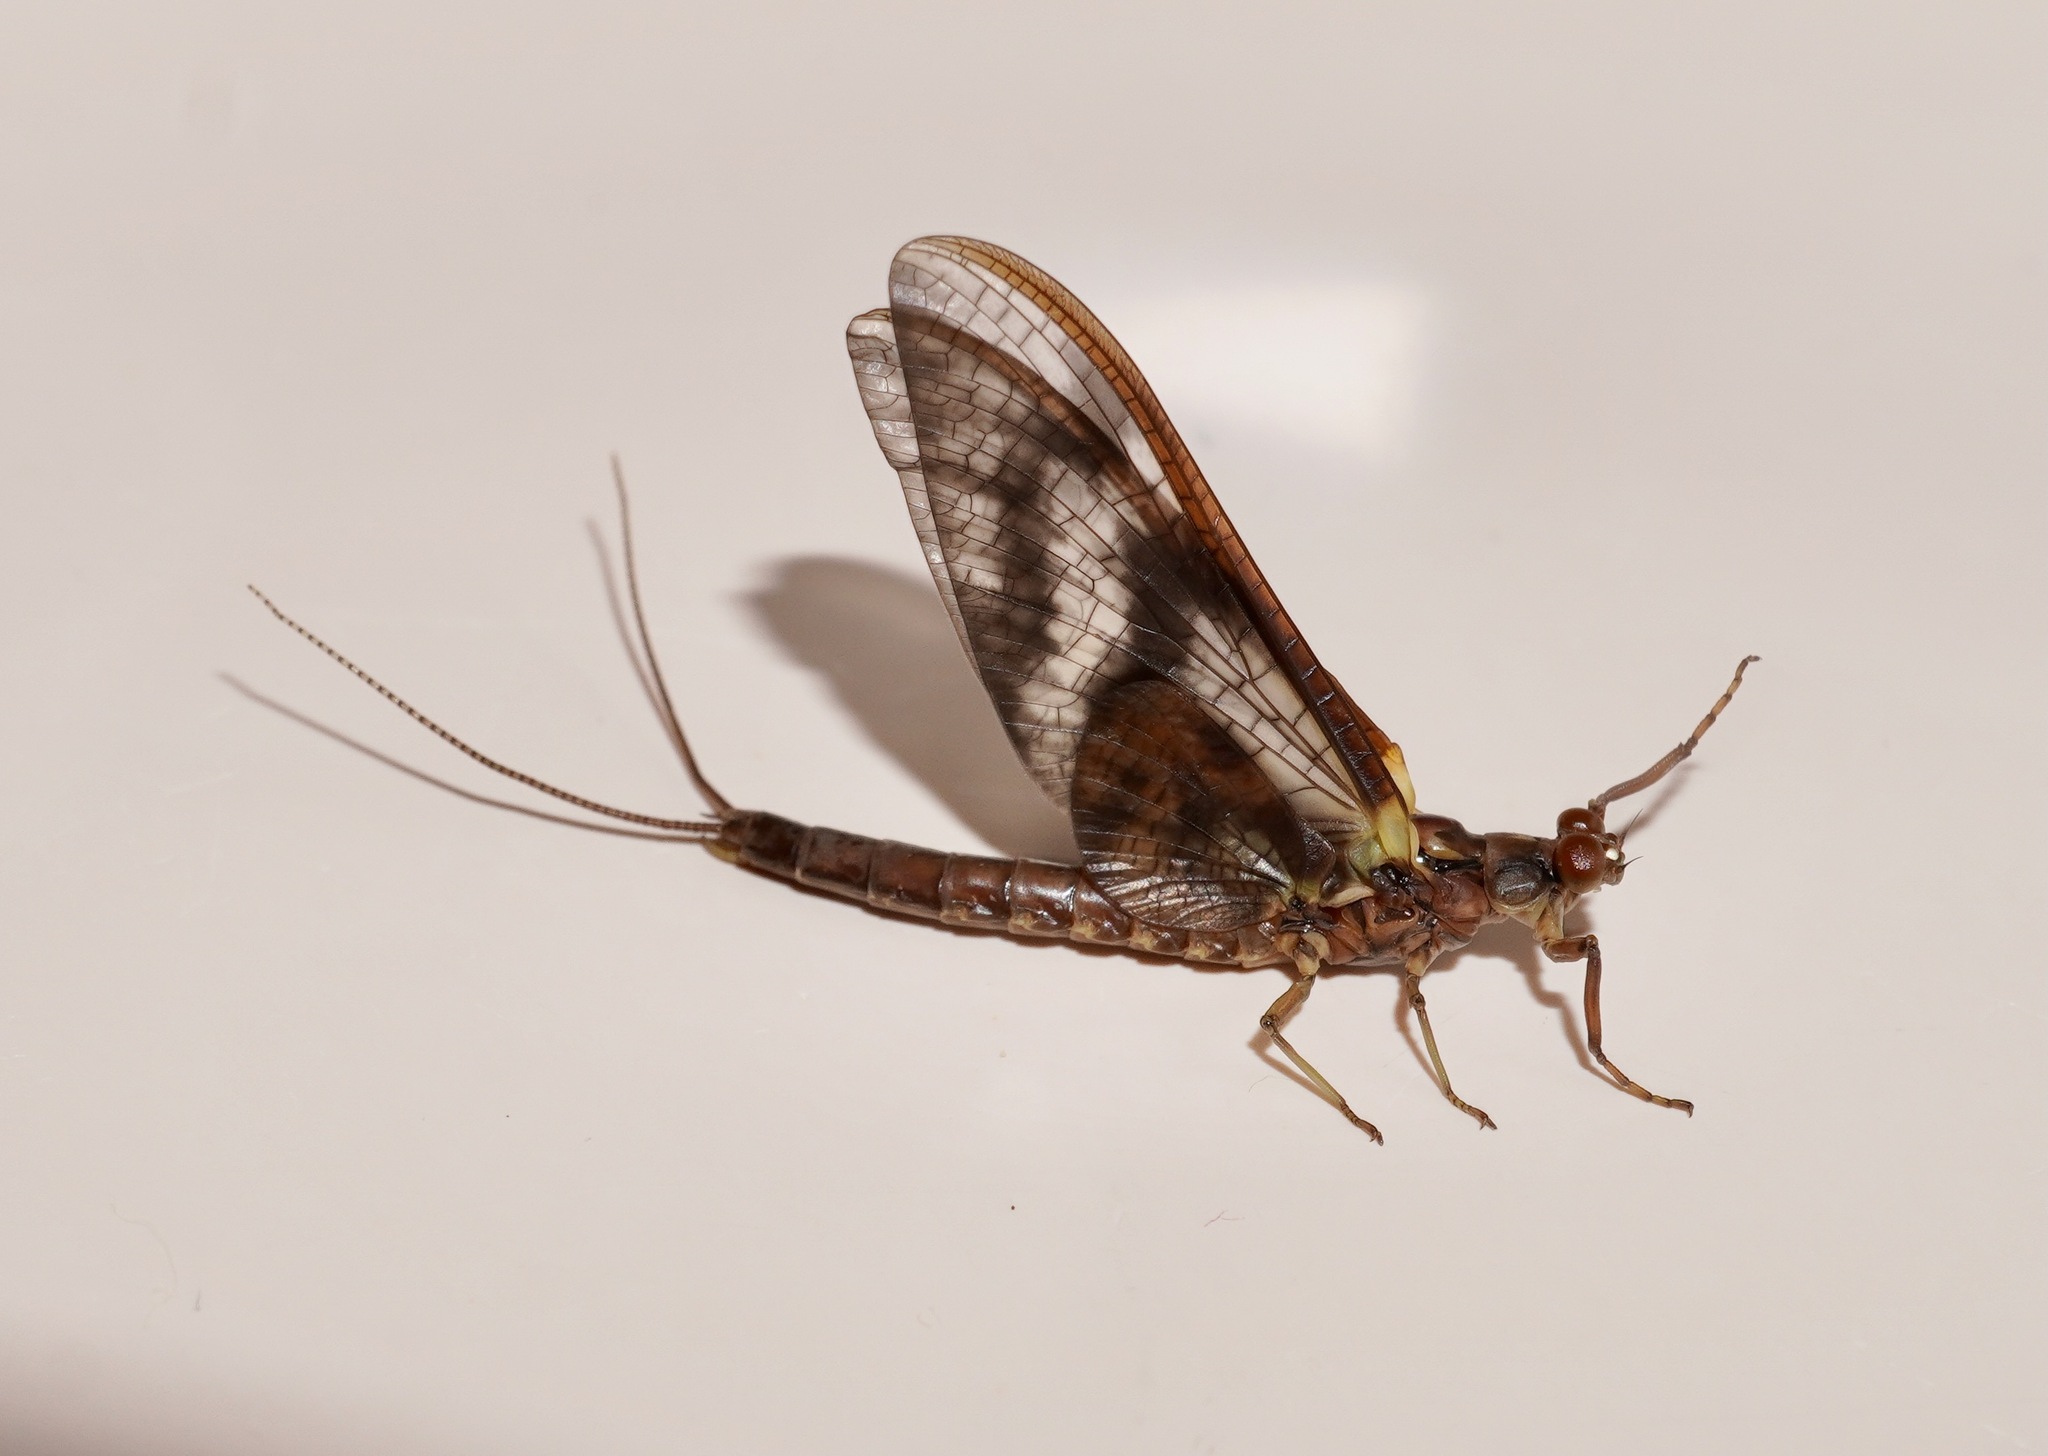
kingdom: Animalia
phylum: Arthropoda
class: Insecta
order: Ephemeroptera
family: Ichthybotidae
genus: Ichthybotus
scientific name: Ichthybotus bicolor
